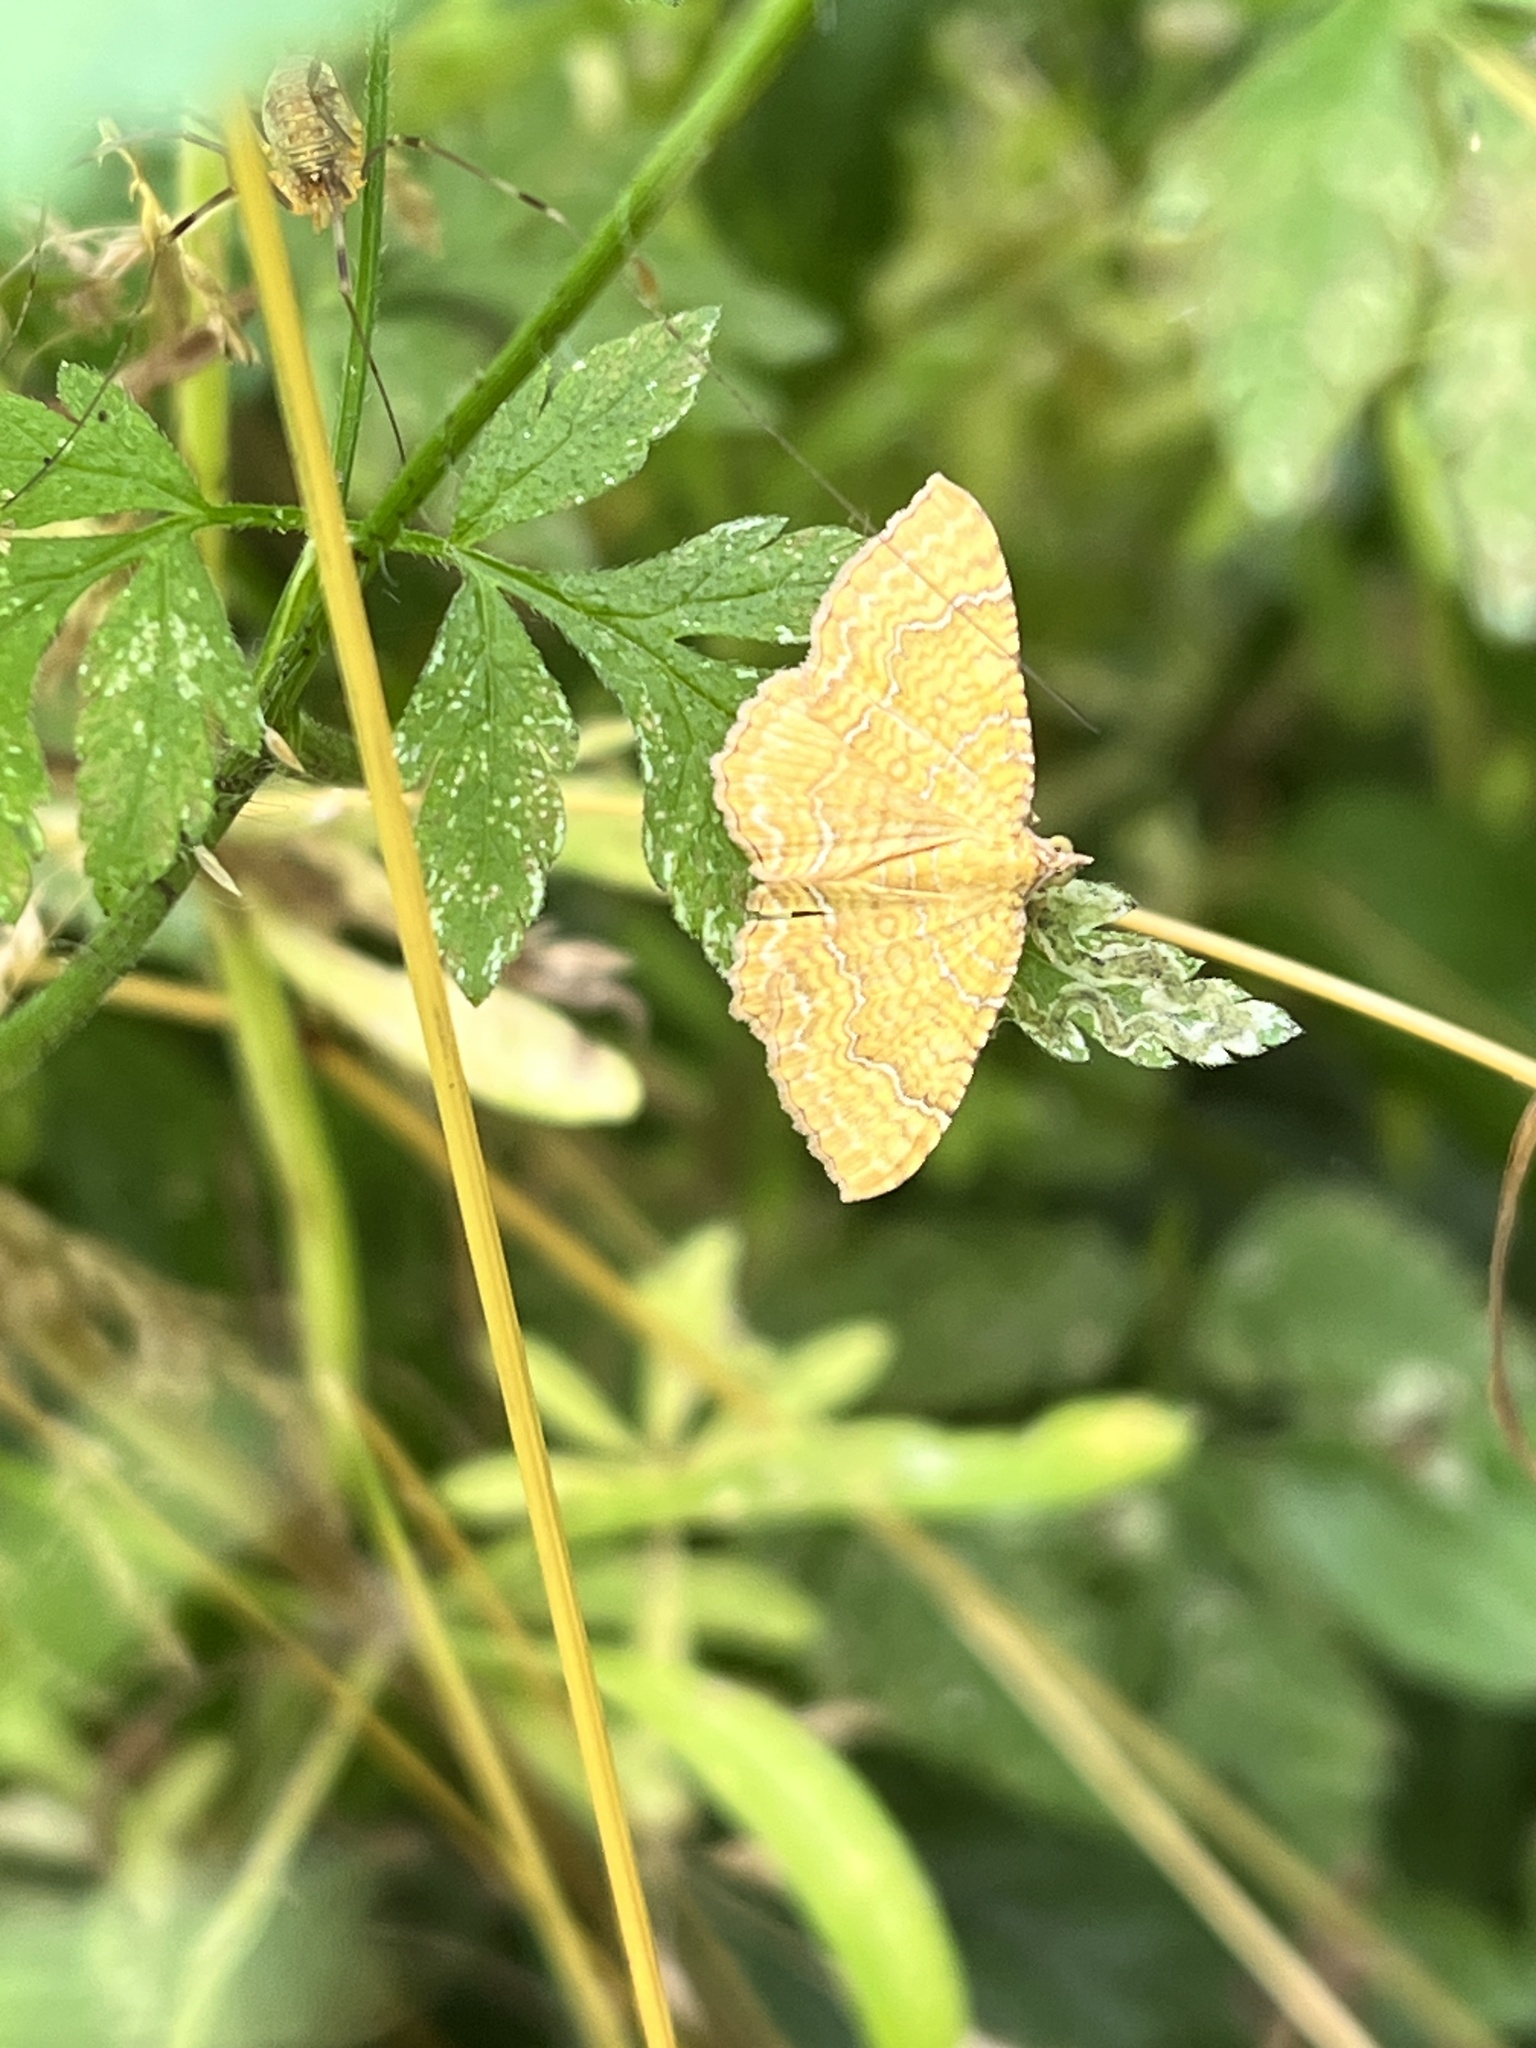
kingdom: Animalia
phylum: Arthropoda
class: Insecta
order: Lepidoptera
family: Geometridae
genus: Camptogramma
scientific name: Camptogramma bilineata
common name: Yellow shell
